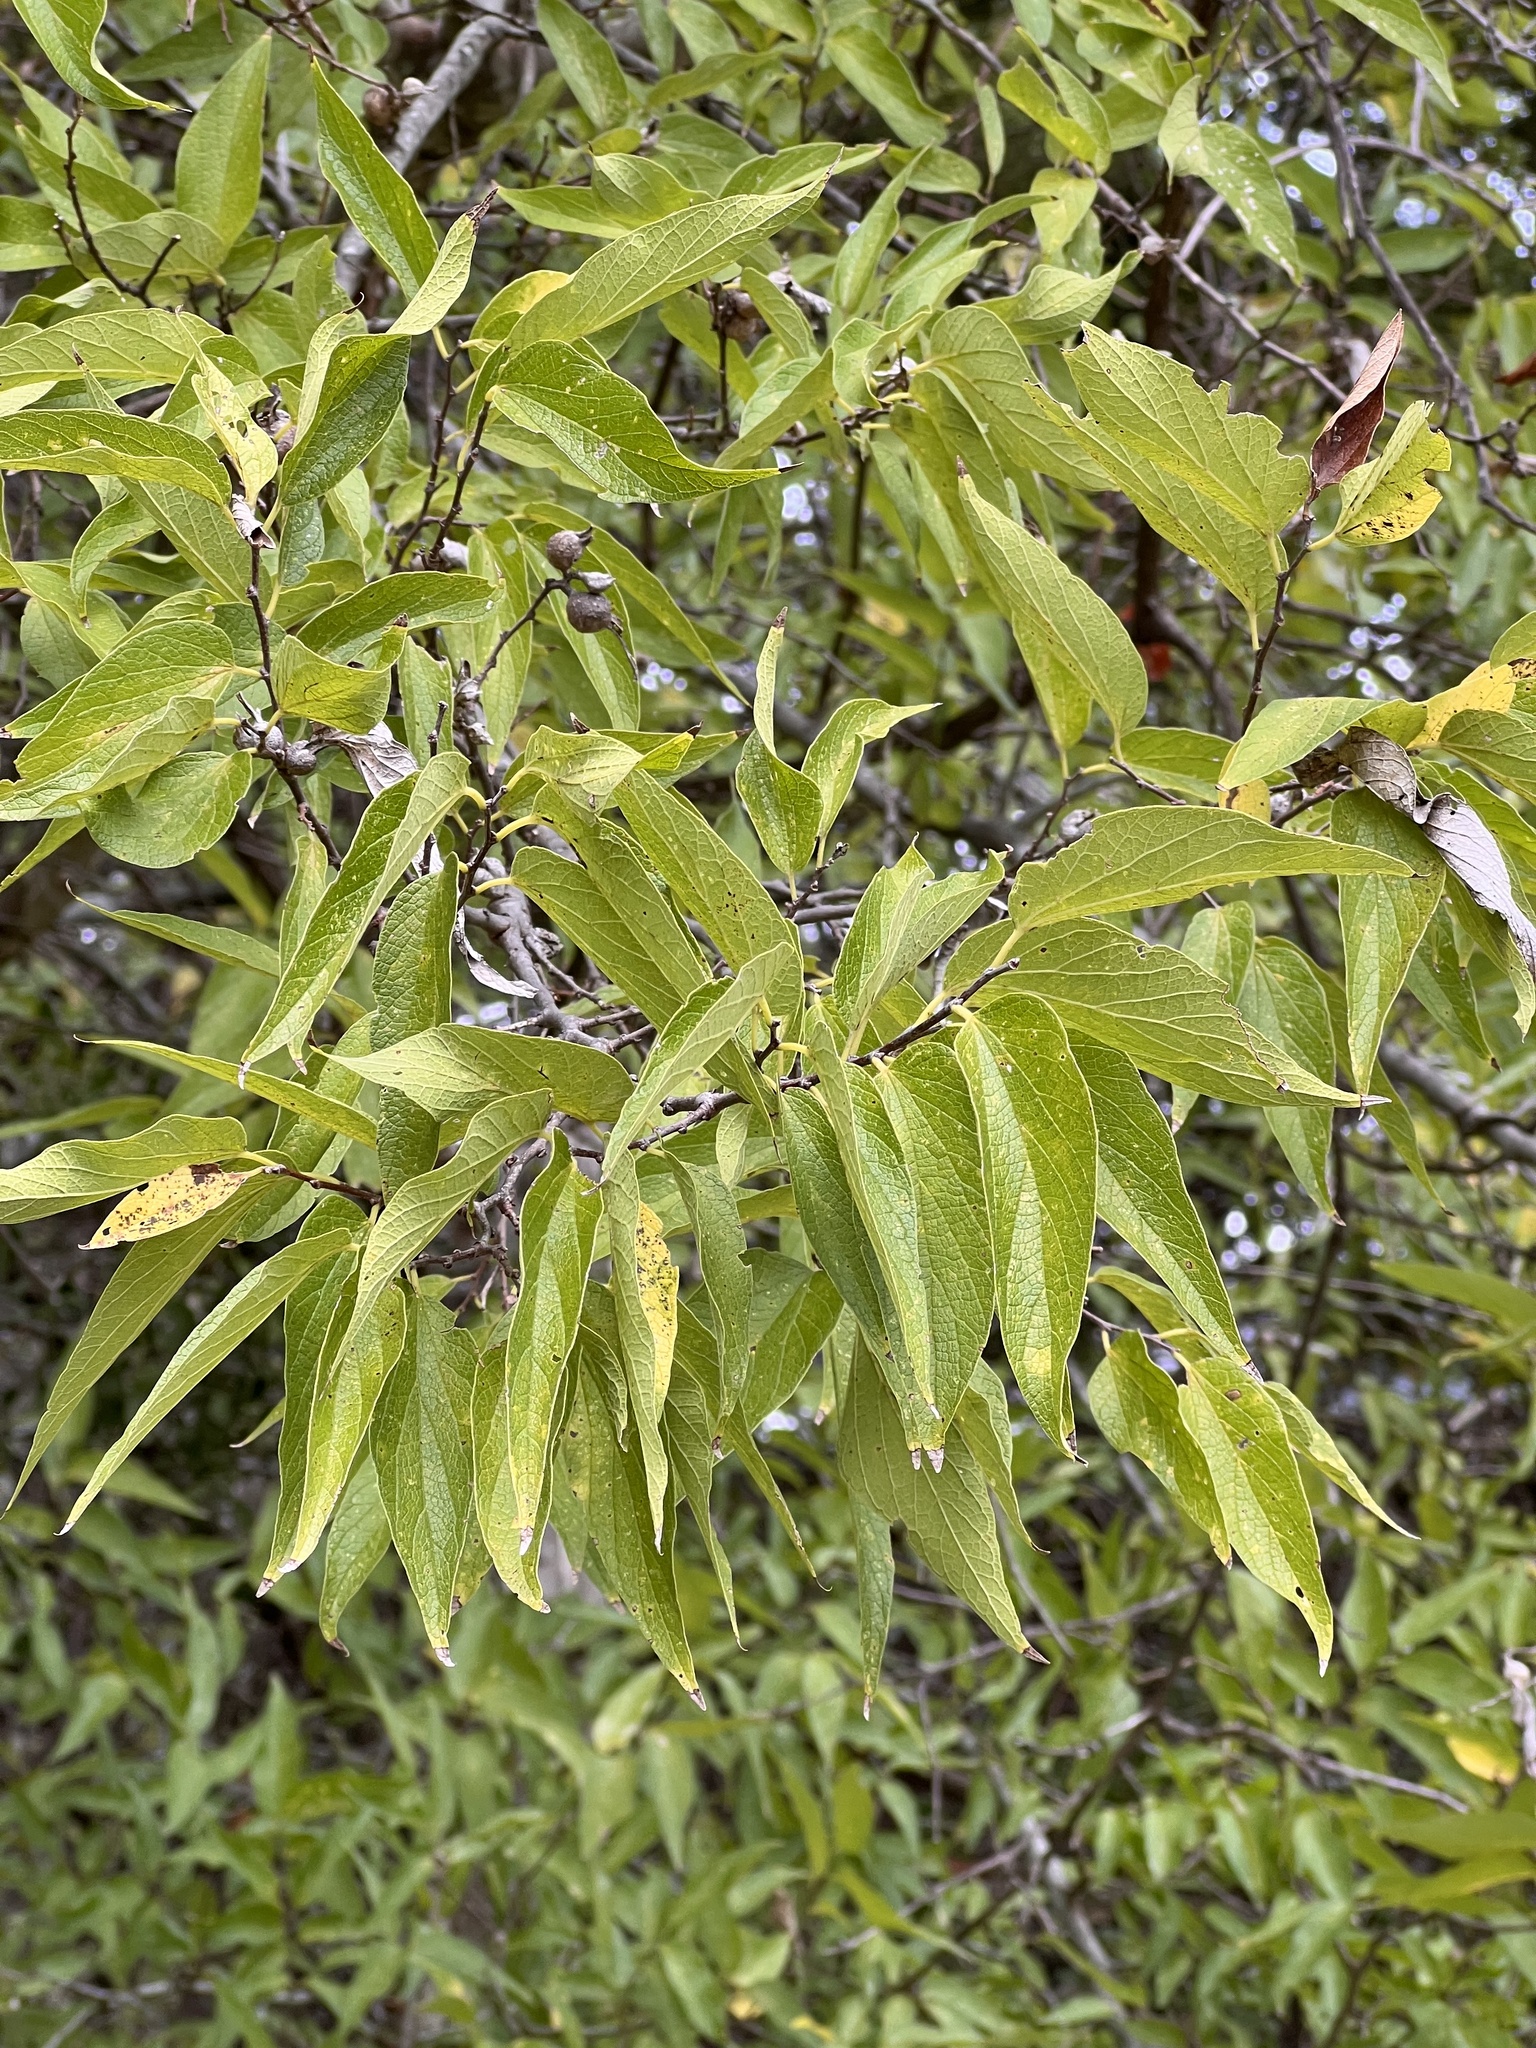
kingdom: Plantae
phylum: Tracheophyta
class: Magnoliopsida
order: Rosales
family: Cannabaceae
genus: Celtis
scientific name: Celtis laevigata
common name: Sugarberry
